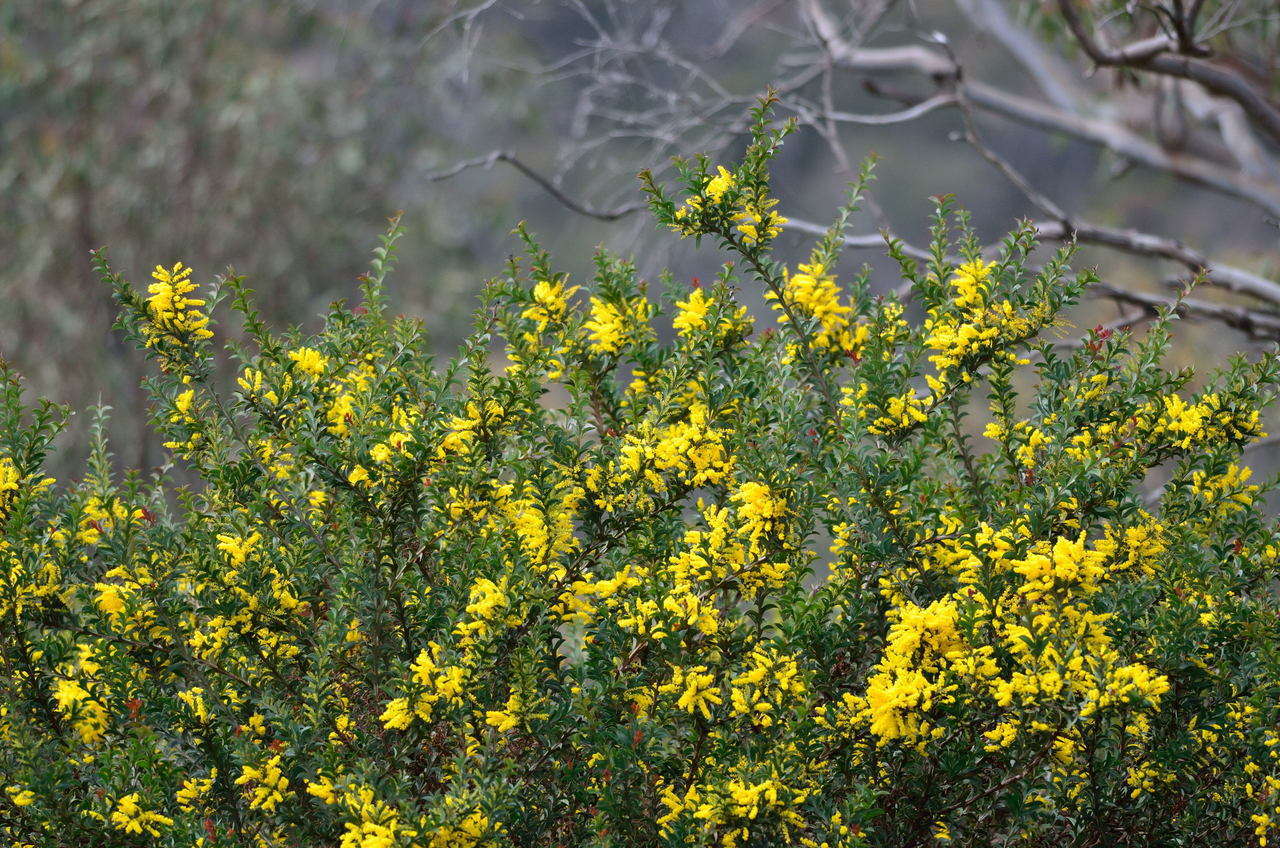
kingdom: Plantae
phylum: Tracheophyta
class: Magnoliopsida
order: Fabales
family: Fabaceae
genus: Acacia
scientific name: Acacia triptera
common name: Spur-wing wattle
